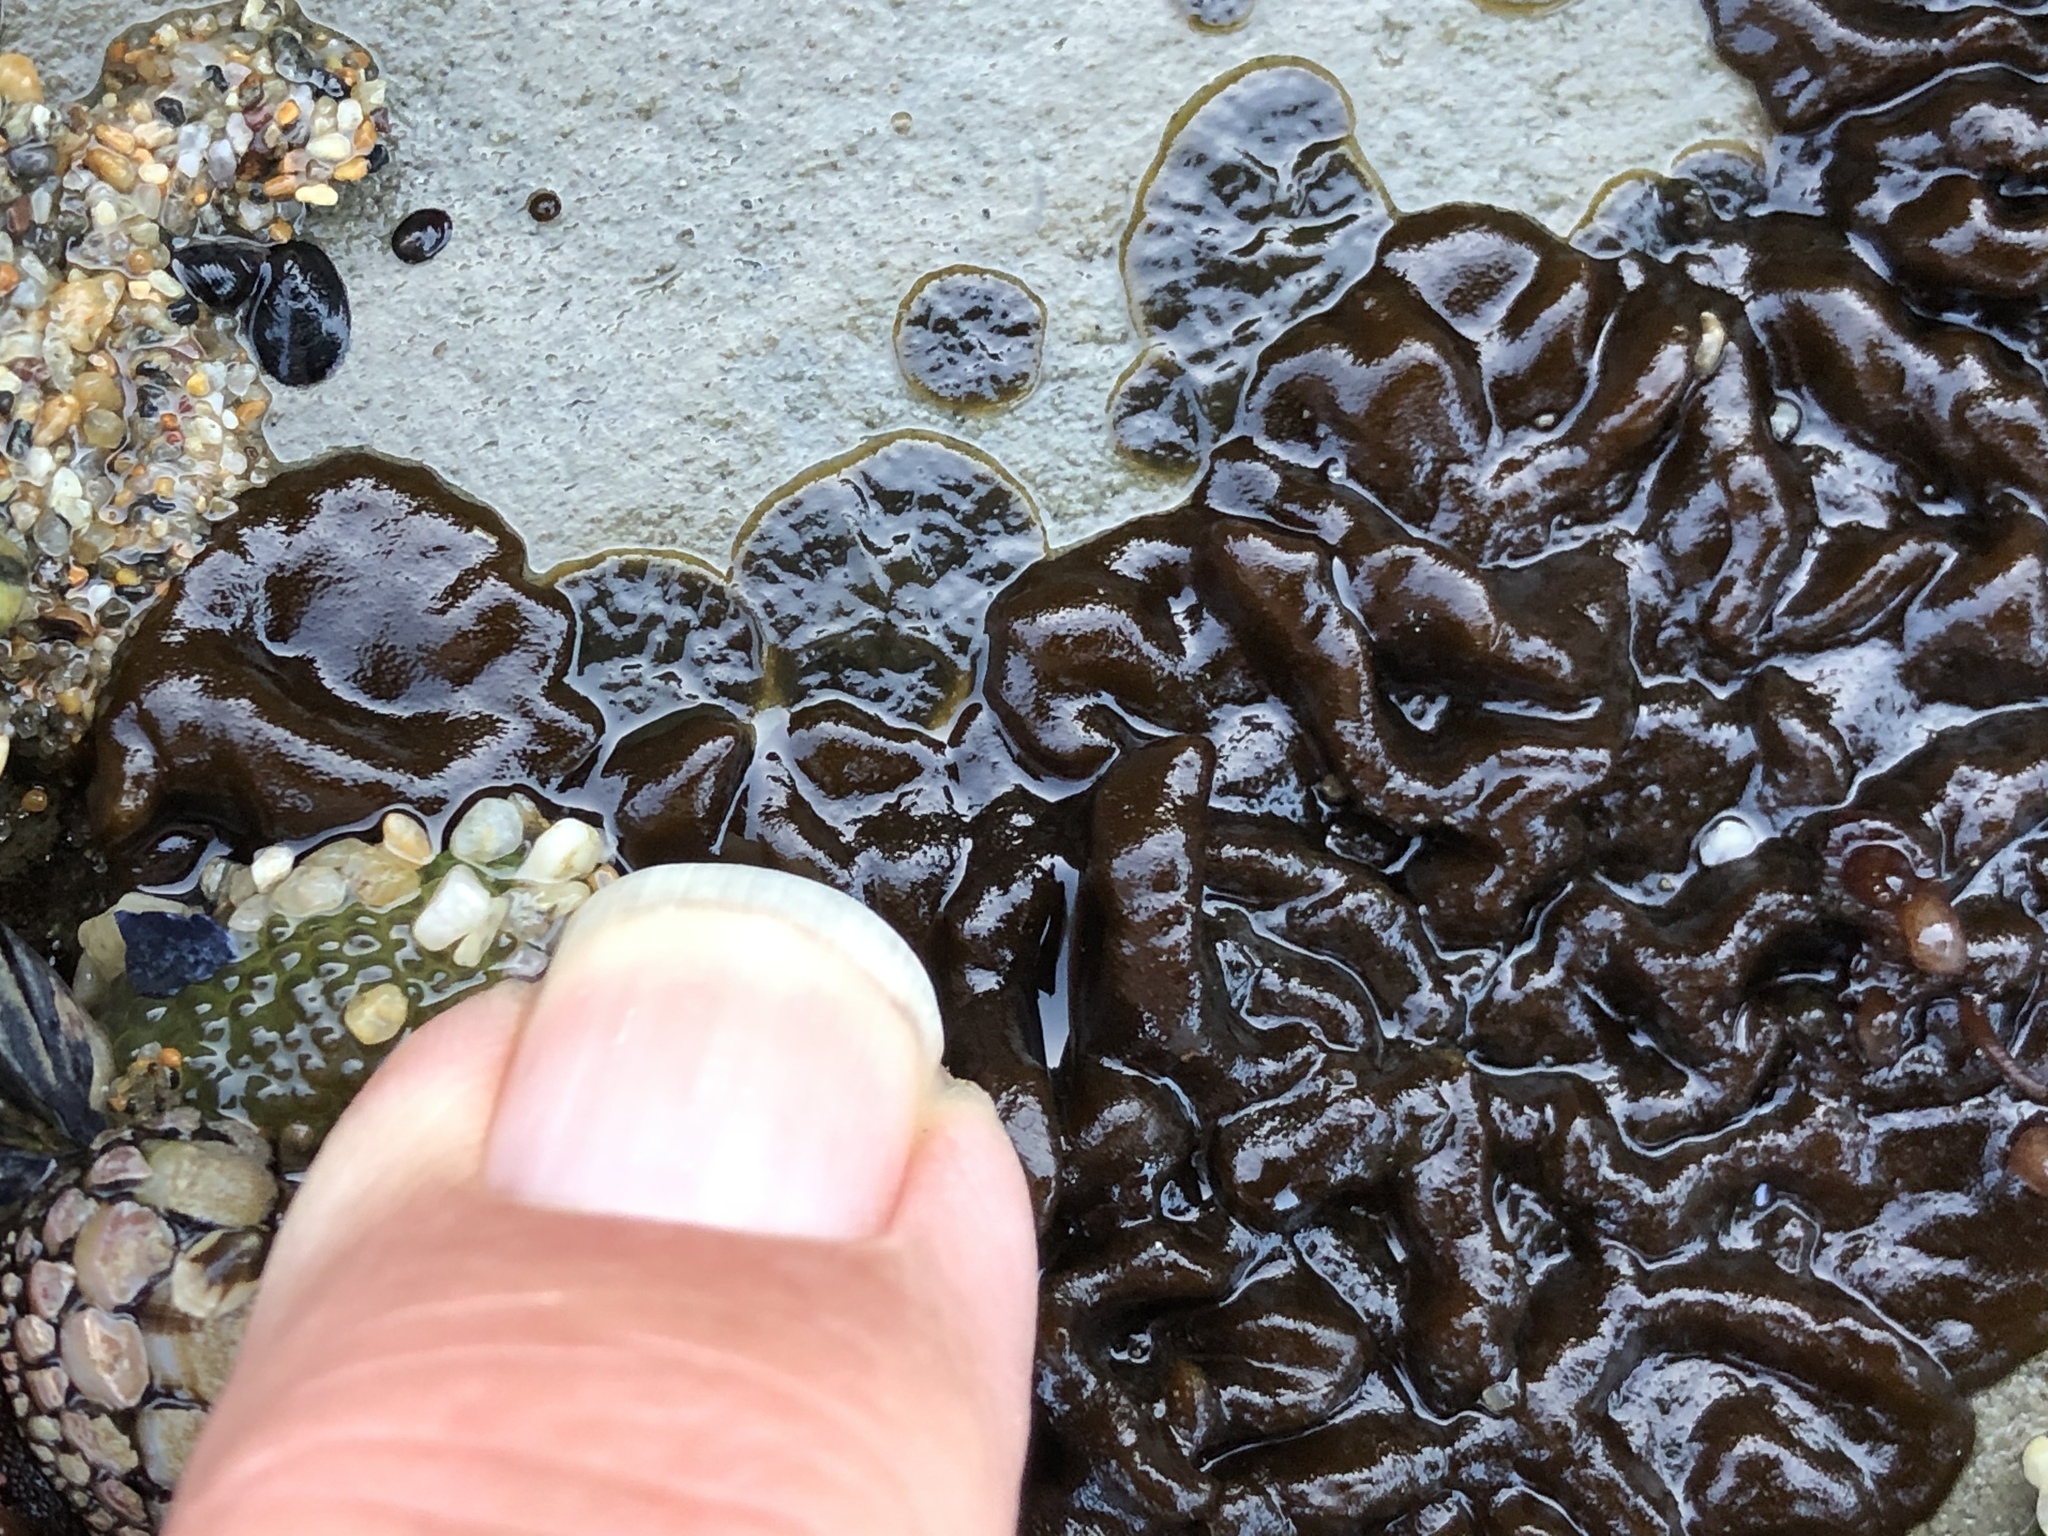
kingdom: Chromista
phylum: Ochrophyta
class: Phaeophyceae
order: Ectocarpales
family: Petrospongiaceae
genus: Petrospongium
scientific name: Petrospongium rugosum
